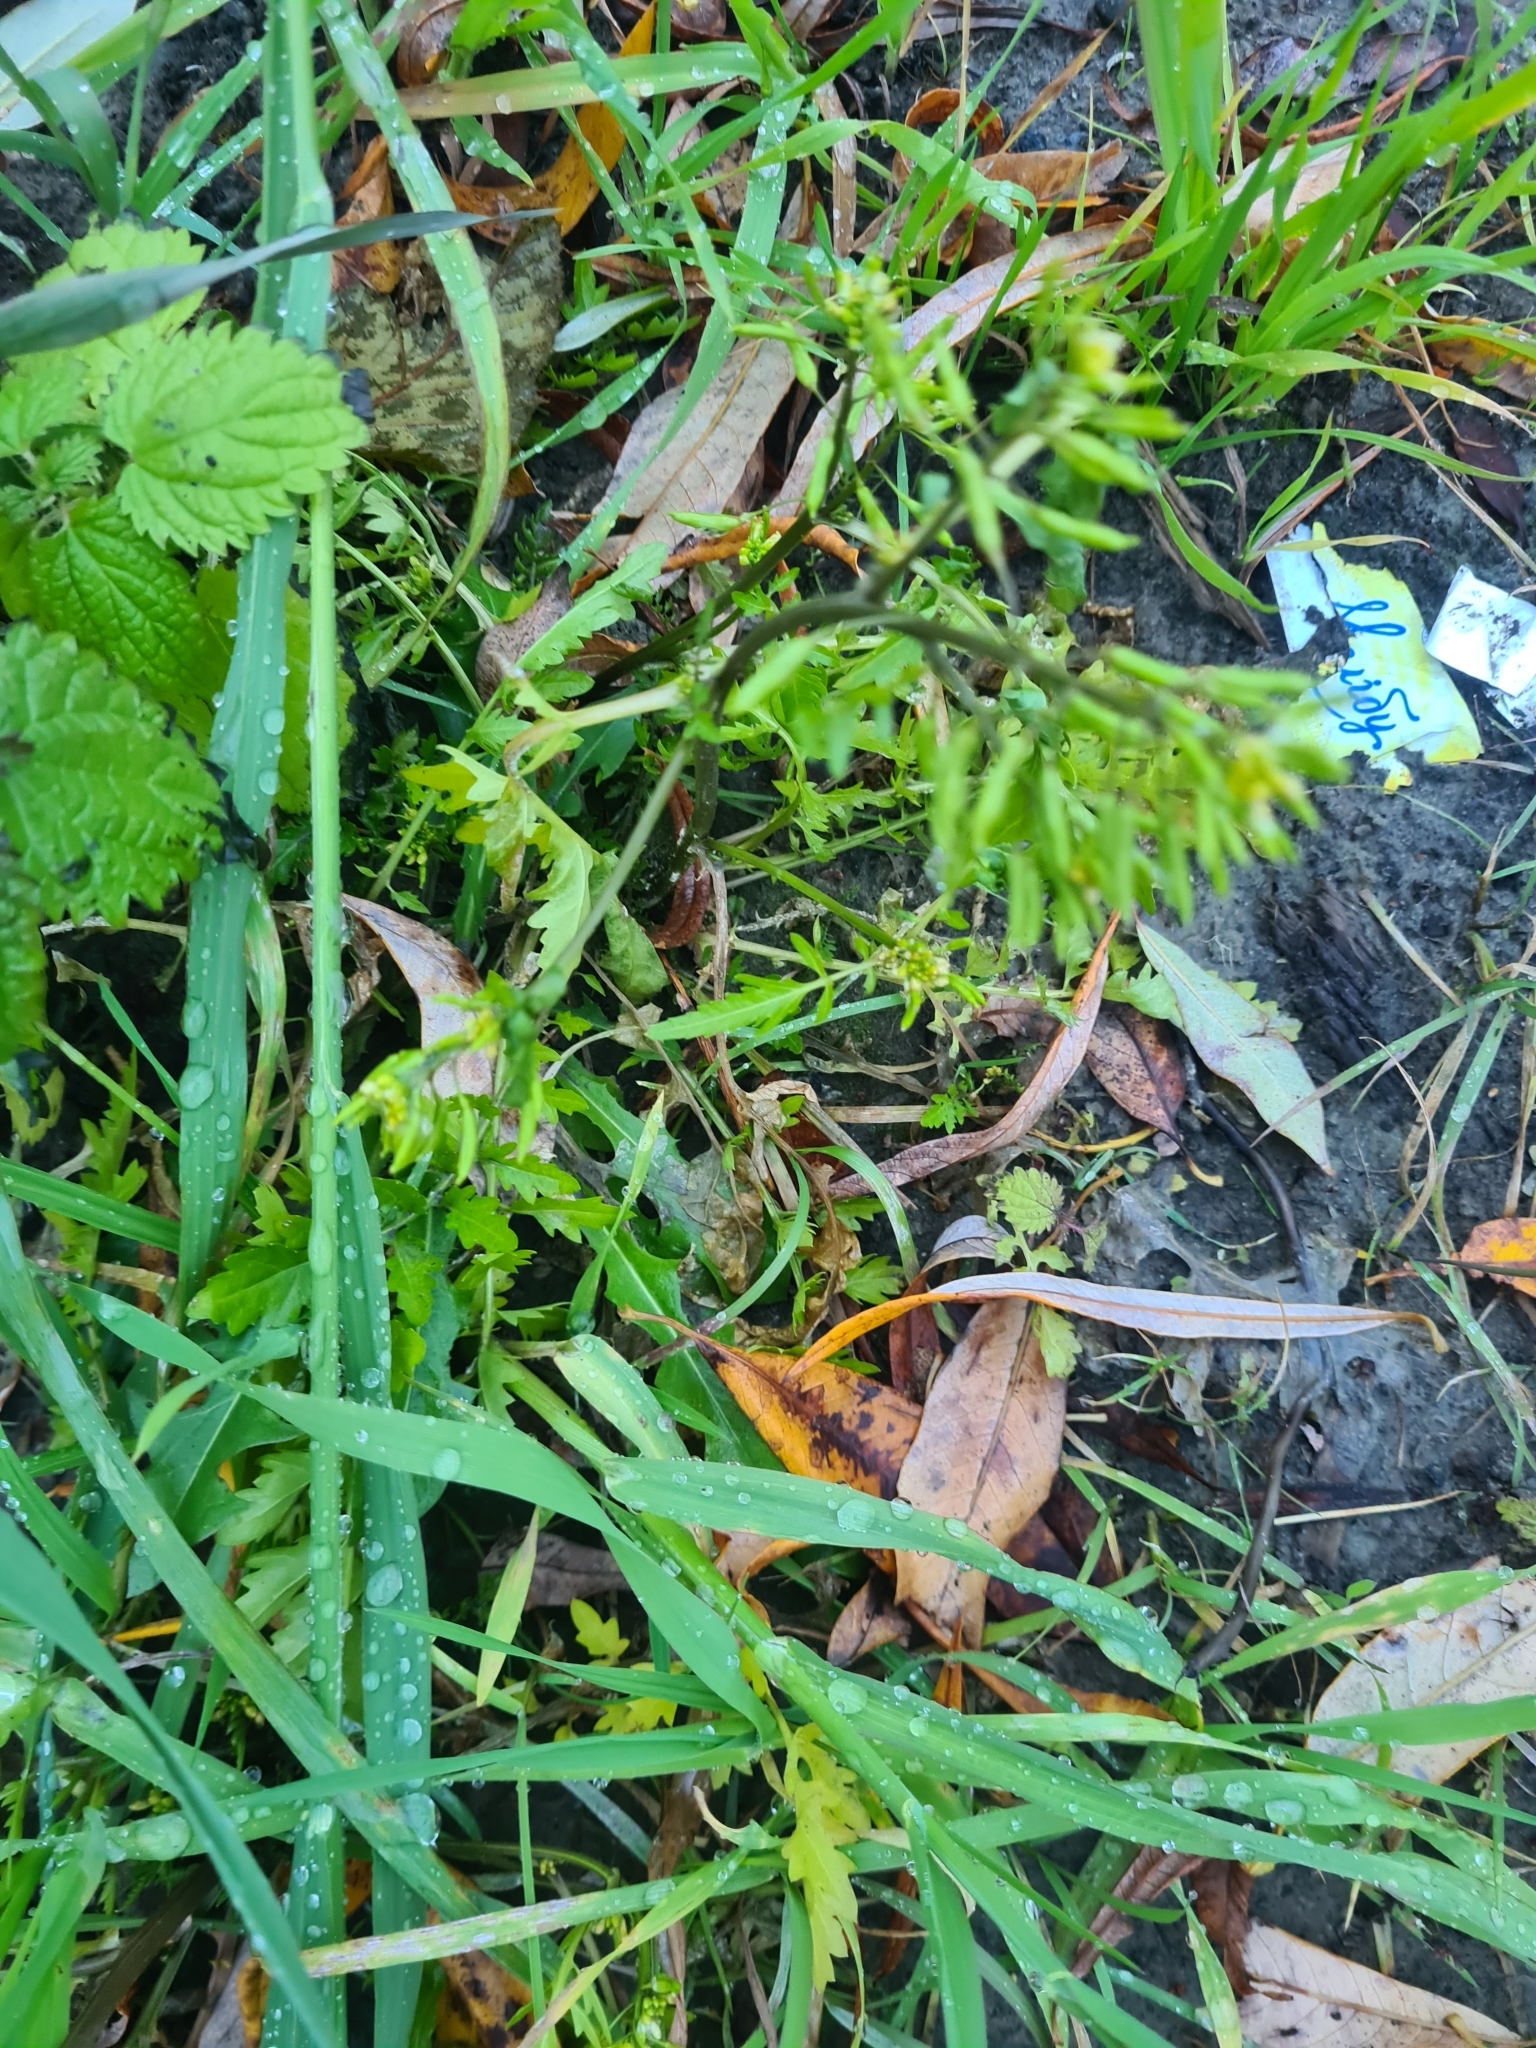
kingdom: Plantae
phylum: Tracheophyta
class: Magnoliopsida
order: Brassicales
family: Brassicaceae
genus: Rorippa
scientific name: Rorippa palustris
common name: Marsh yellow-cress
